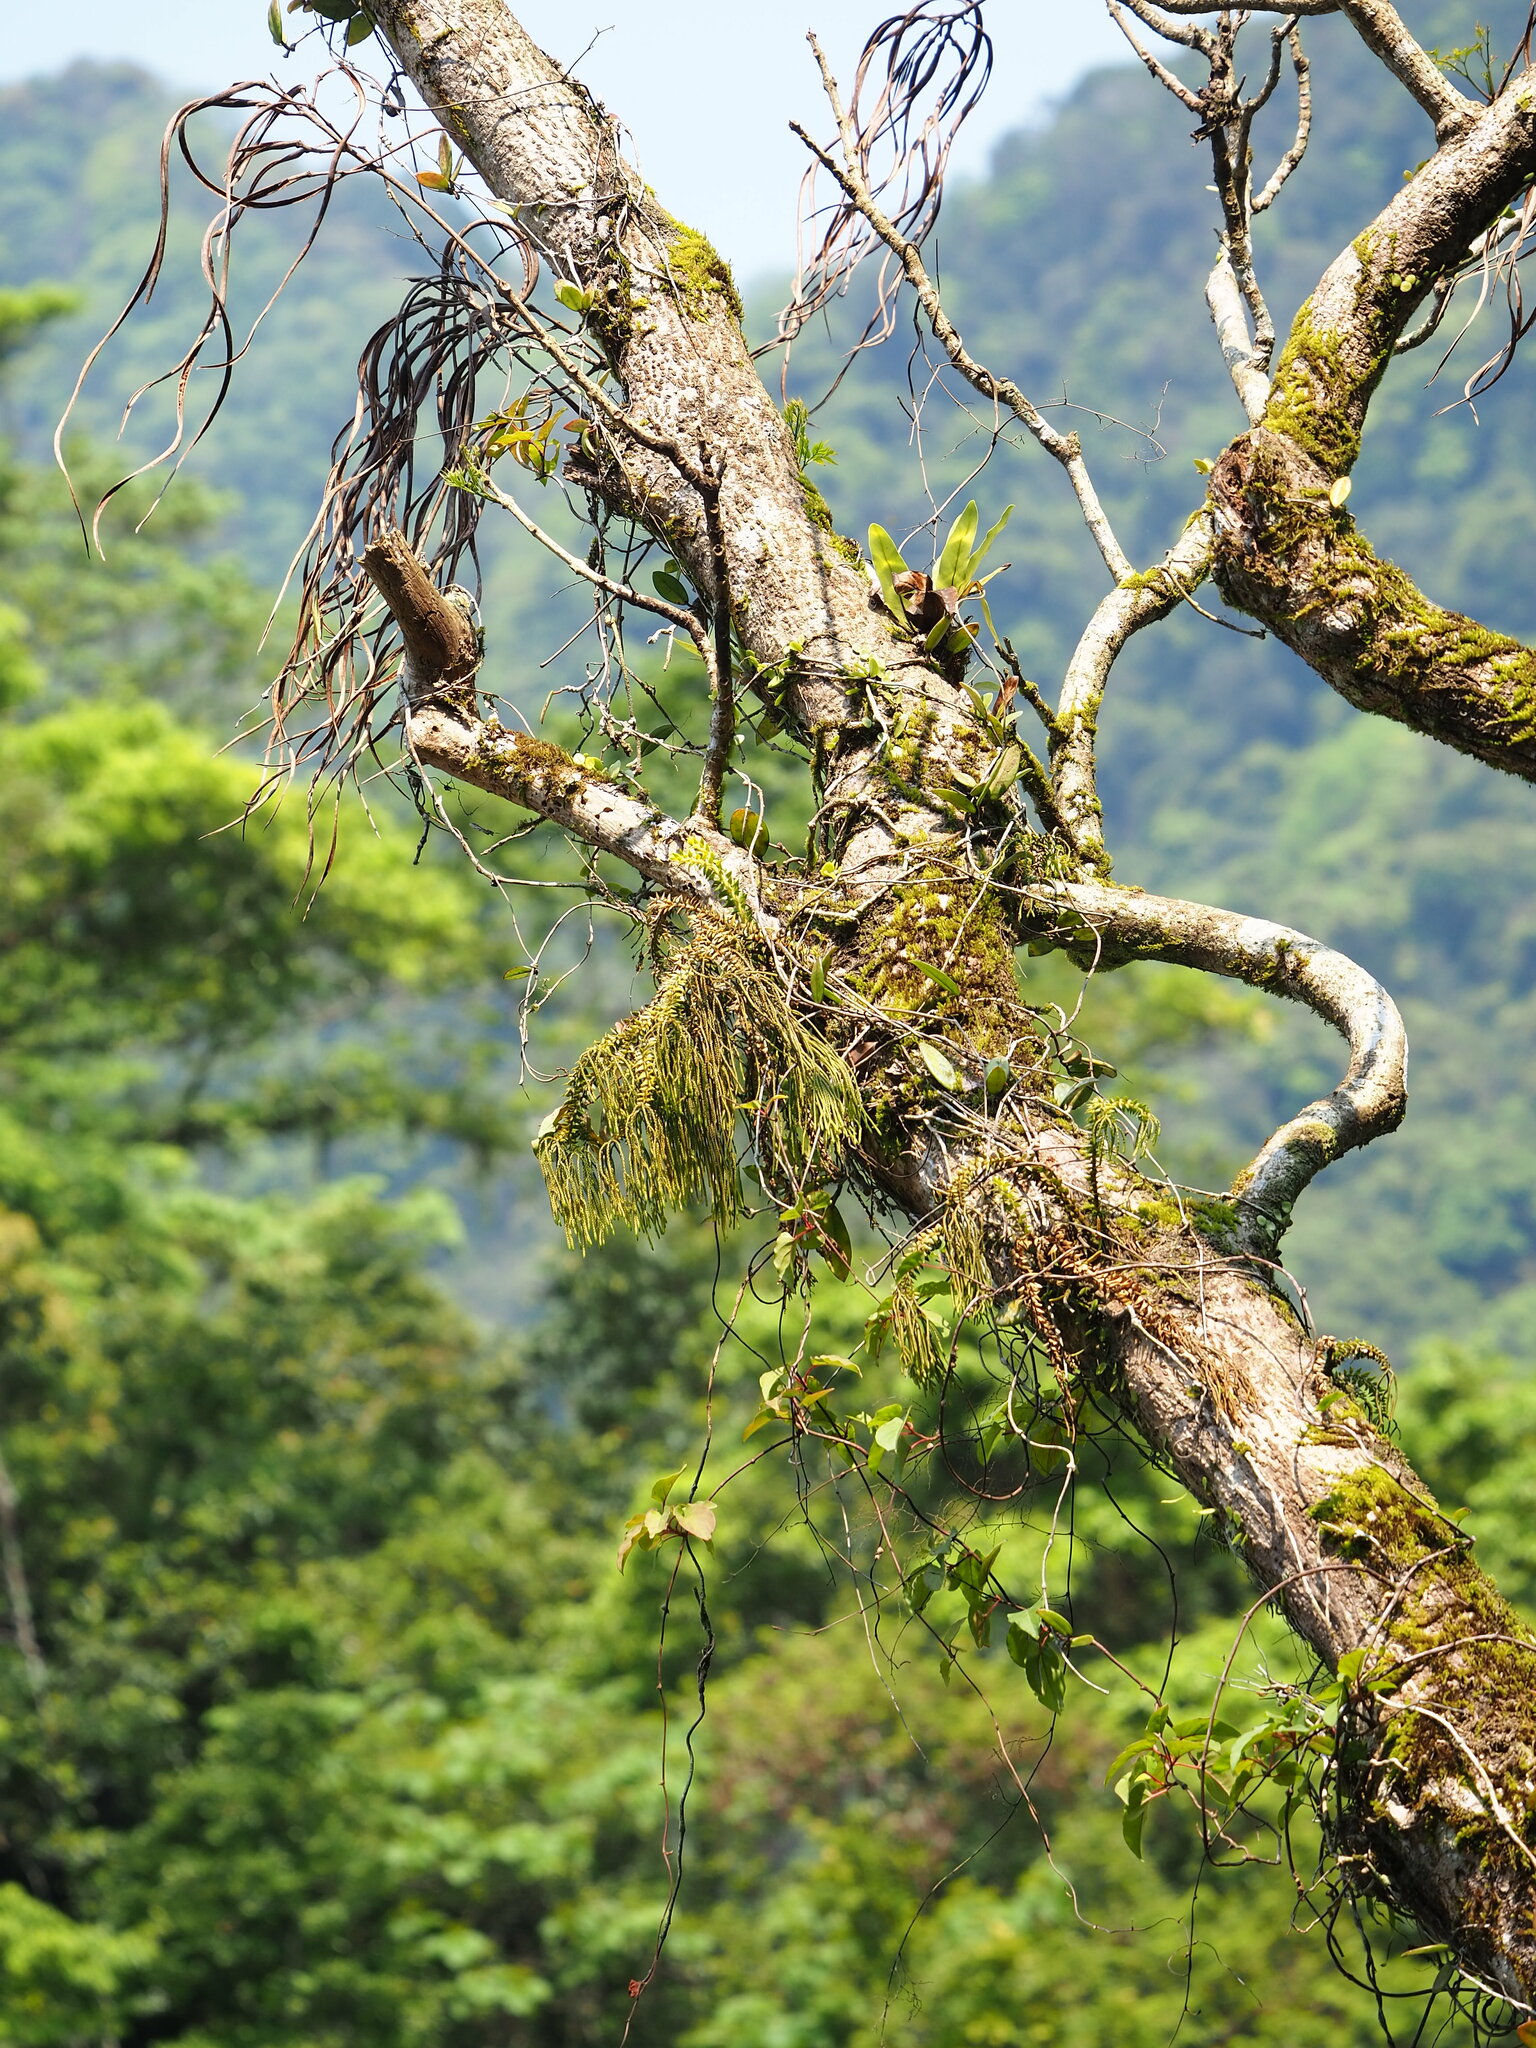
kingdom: Plantae
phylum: Tracheophyta
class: Lycopodiopsida
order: Lycopodiales
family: Lycopodiaceae
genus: Phlegmariurus
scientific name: Phlegmariurus phlegmaria
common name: Coarse tassel-fern
